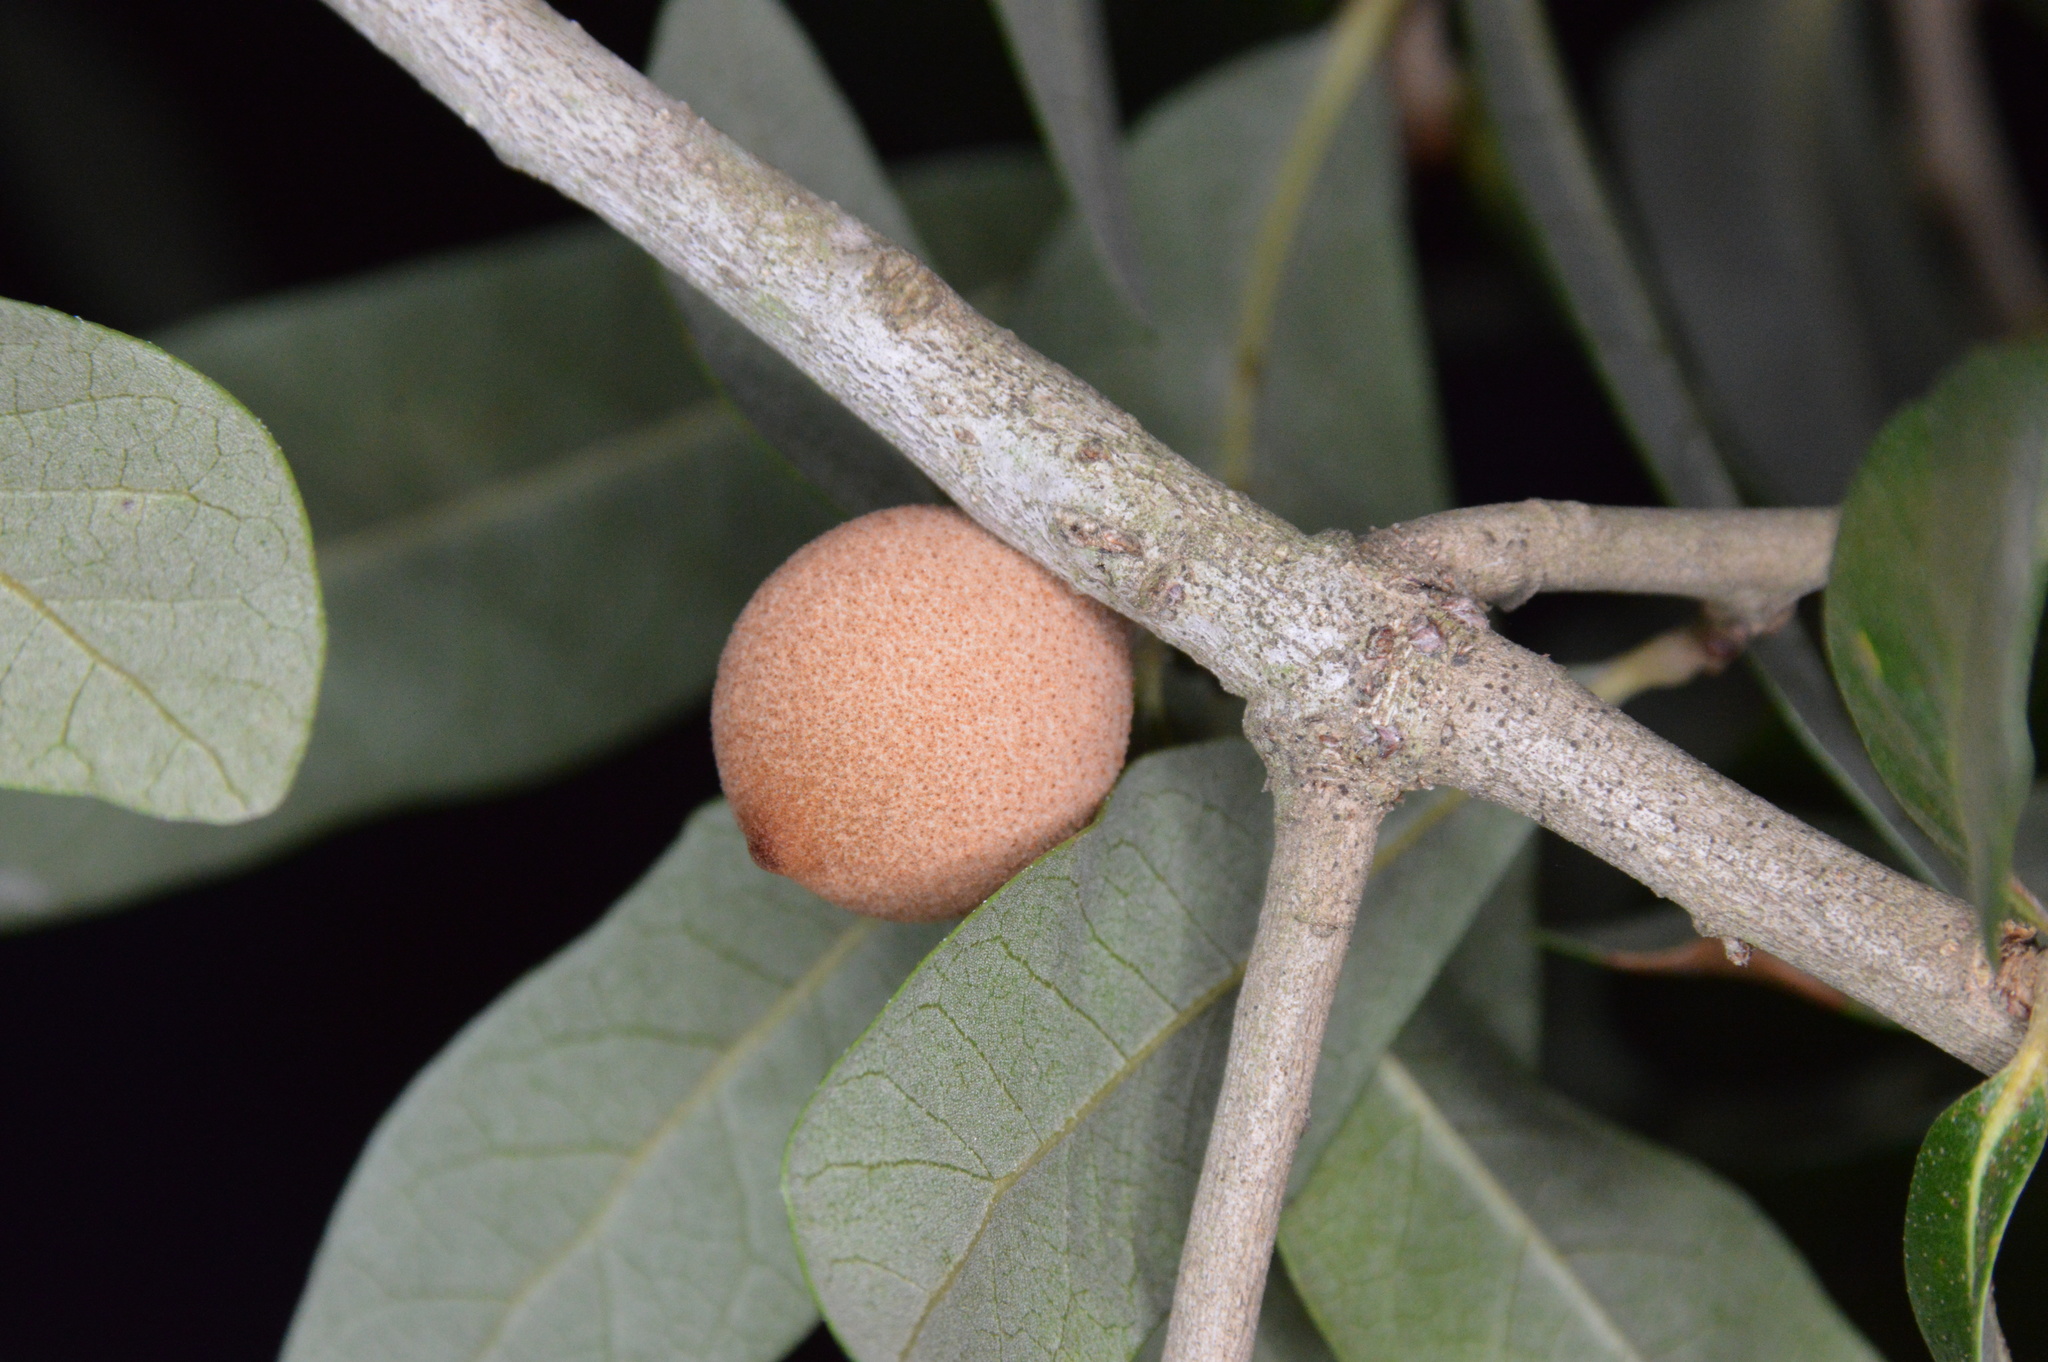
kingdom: Animalia
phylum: Arthropoda
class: Insecta
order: Hymenoptera
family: Cynipidae
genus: Disholcaspis
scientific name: Disholcaspis
